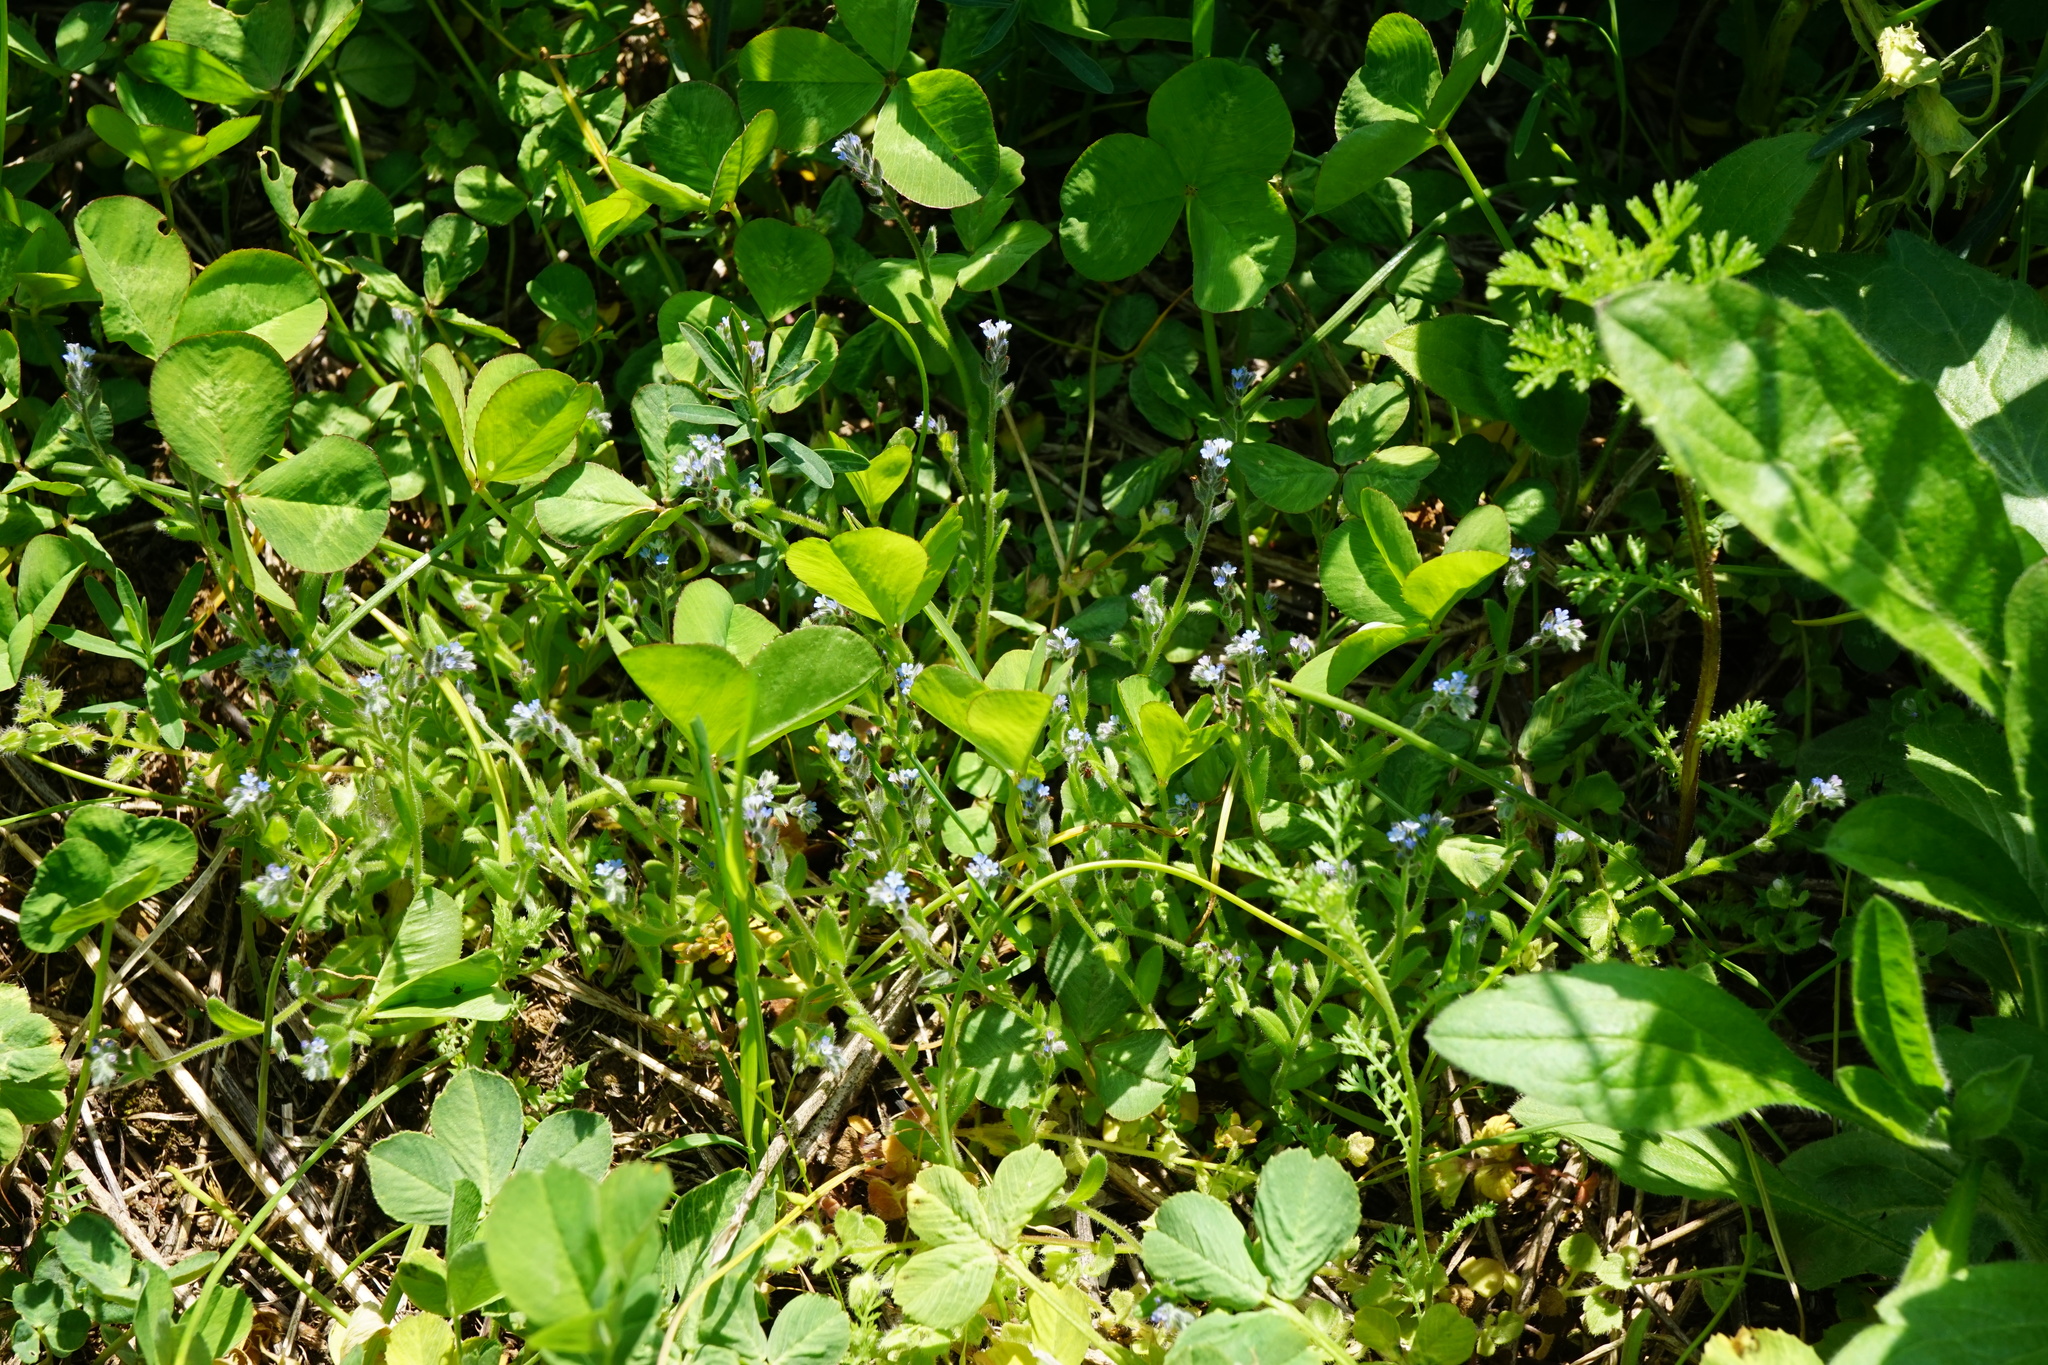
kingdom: Plantae
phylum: Tracheophyta
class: Magnoliopsida
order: Boraginales
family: Boraginaceae
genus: Myosotis
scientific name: Myosotis stricta
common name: Strict forget-me-not
